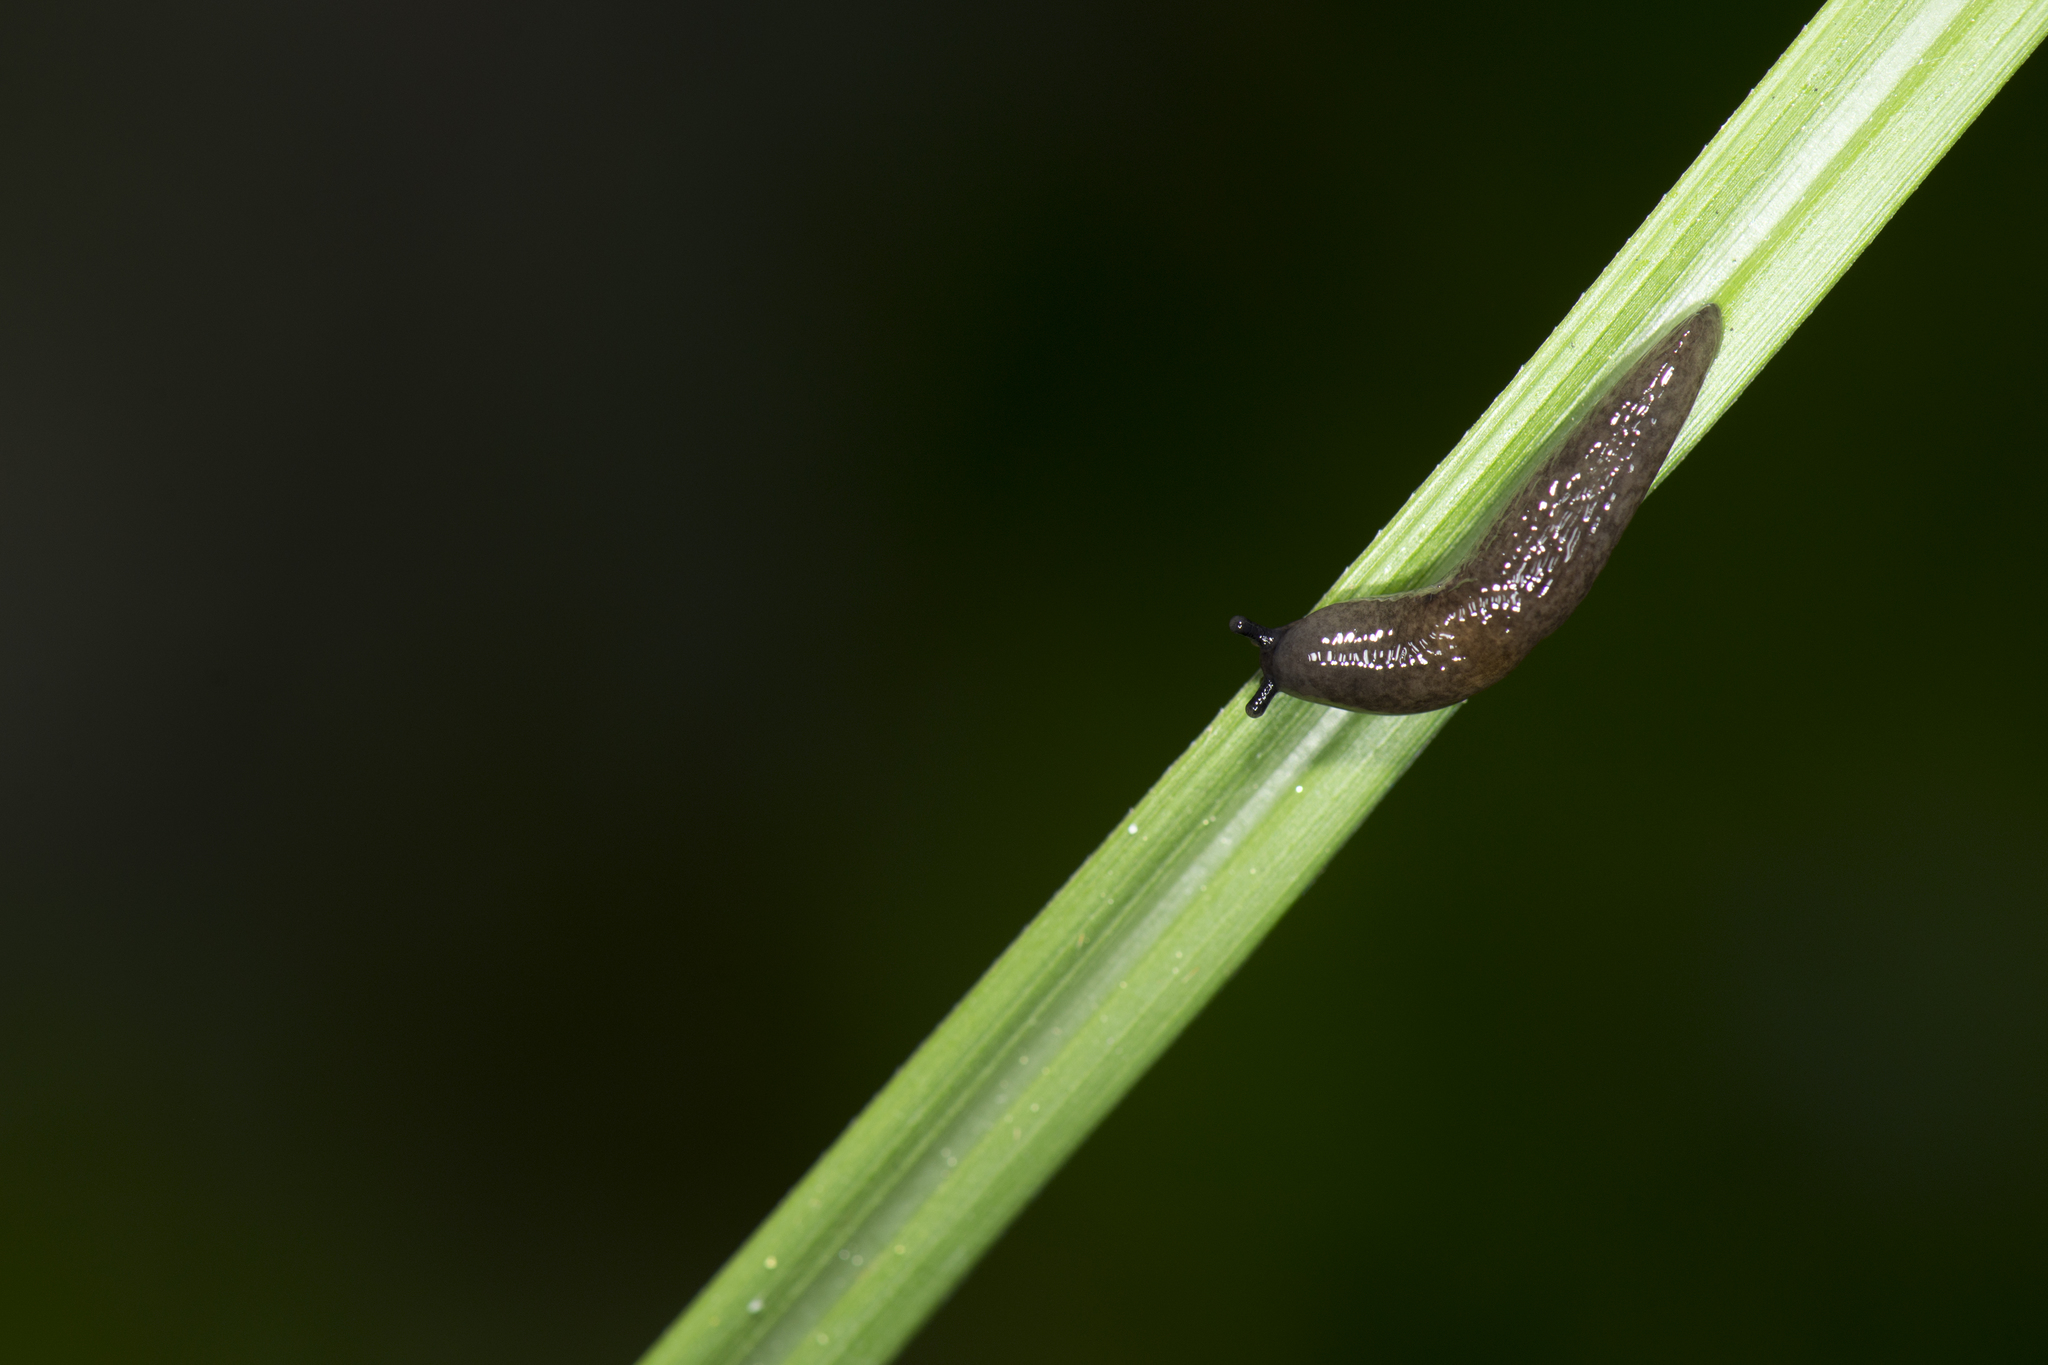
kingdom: Animalia
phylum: Mollusca
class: Gastropoda
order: Stylommatophora
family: Agriolimacidae
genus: Deroceras
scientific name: Deroceras laeve
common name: Marsh slug
